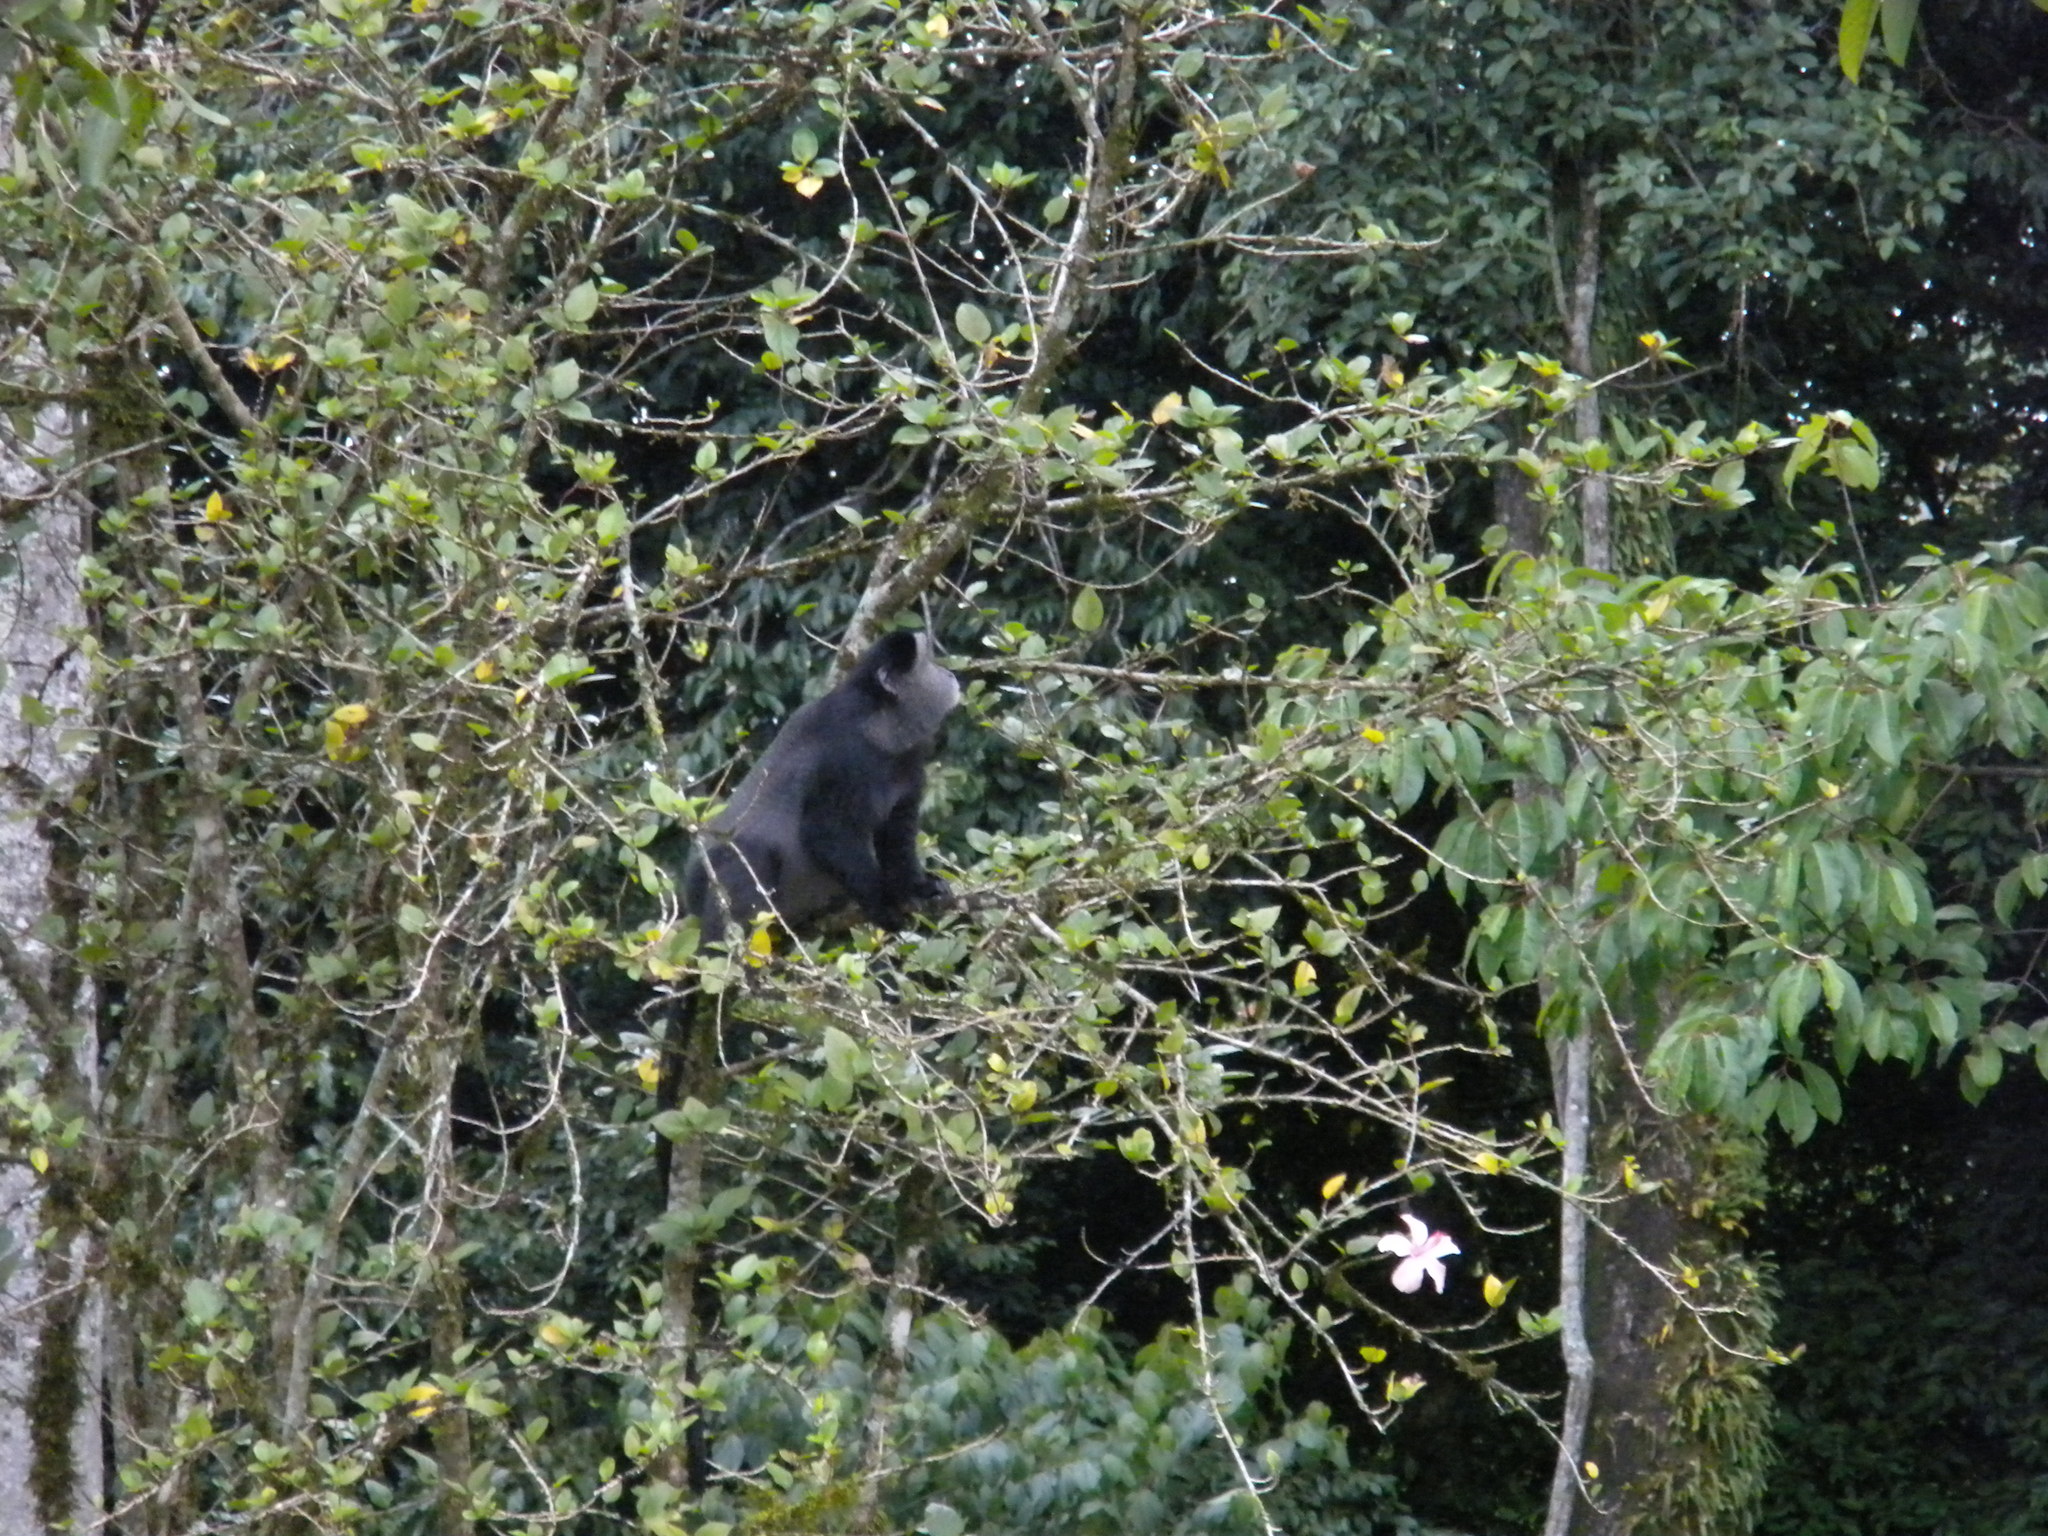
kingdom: Animalia
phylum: Chordata
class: Mammalia
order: Primates
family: Cercopithecidae
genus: Cercopithecus
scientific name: Cercopithecus mitis
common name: Blue monkey
